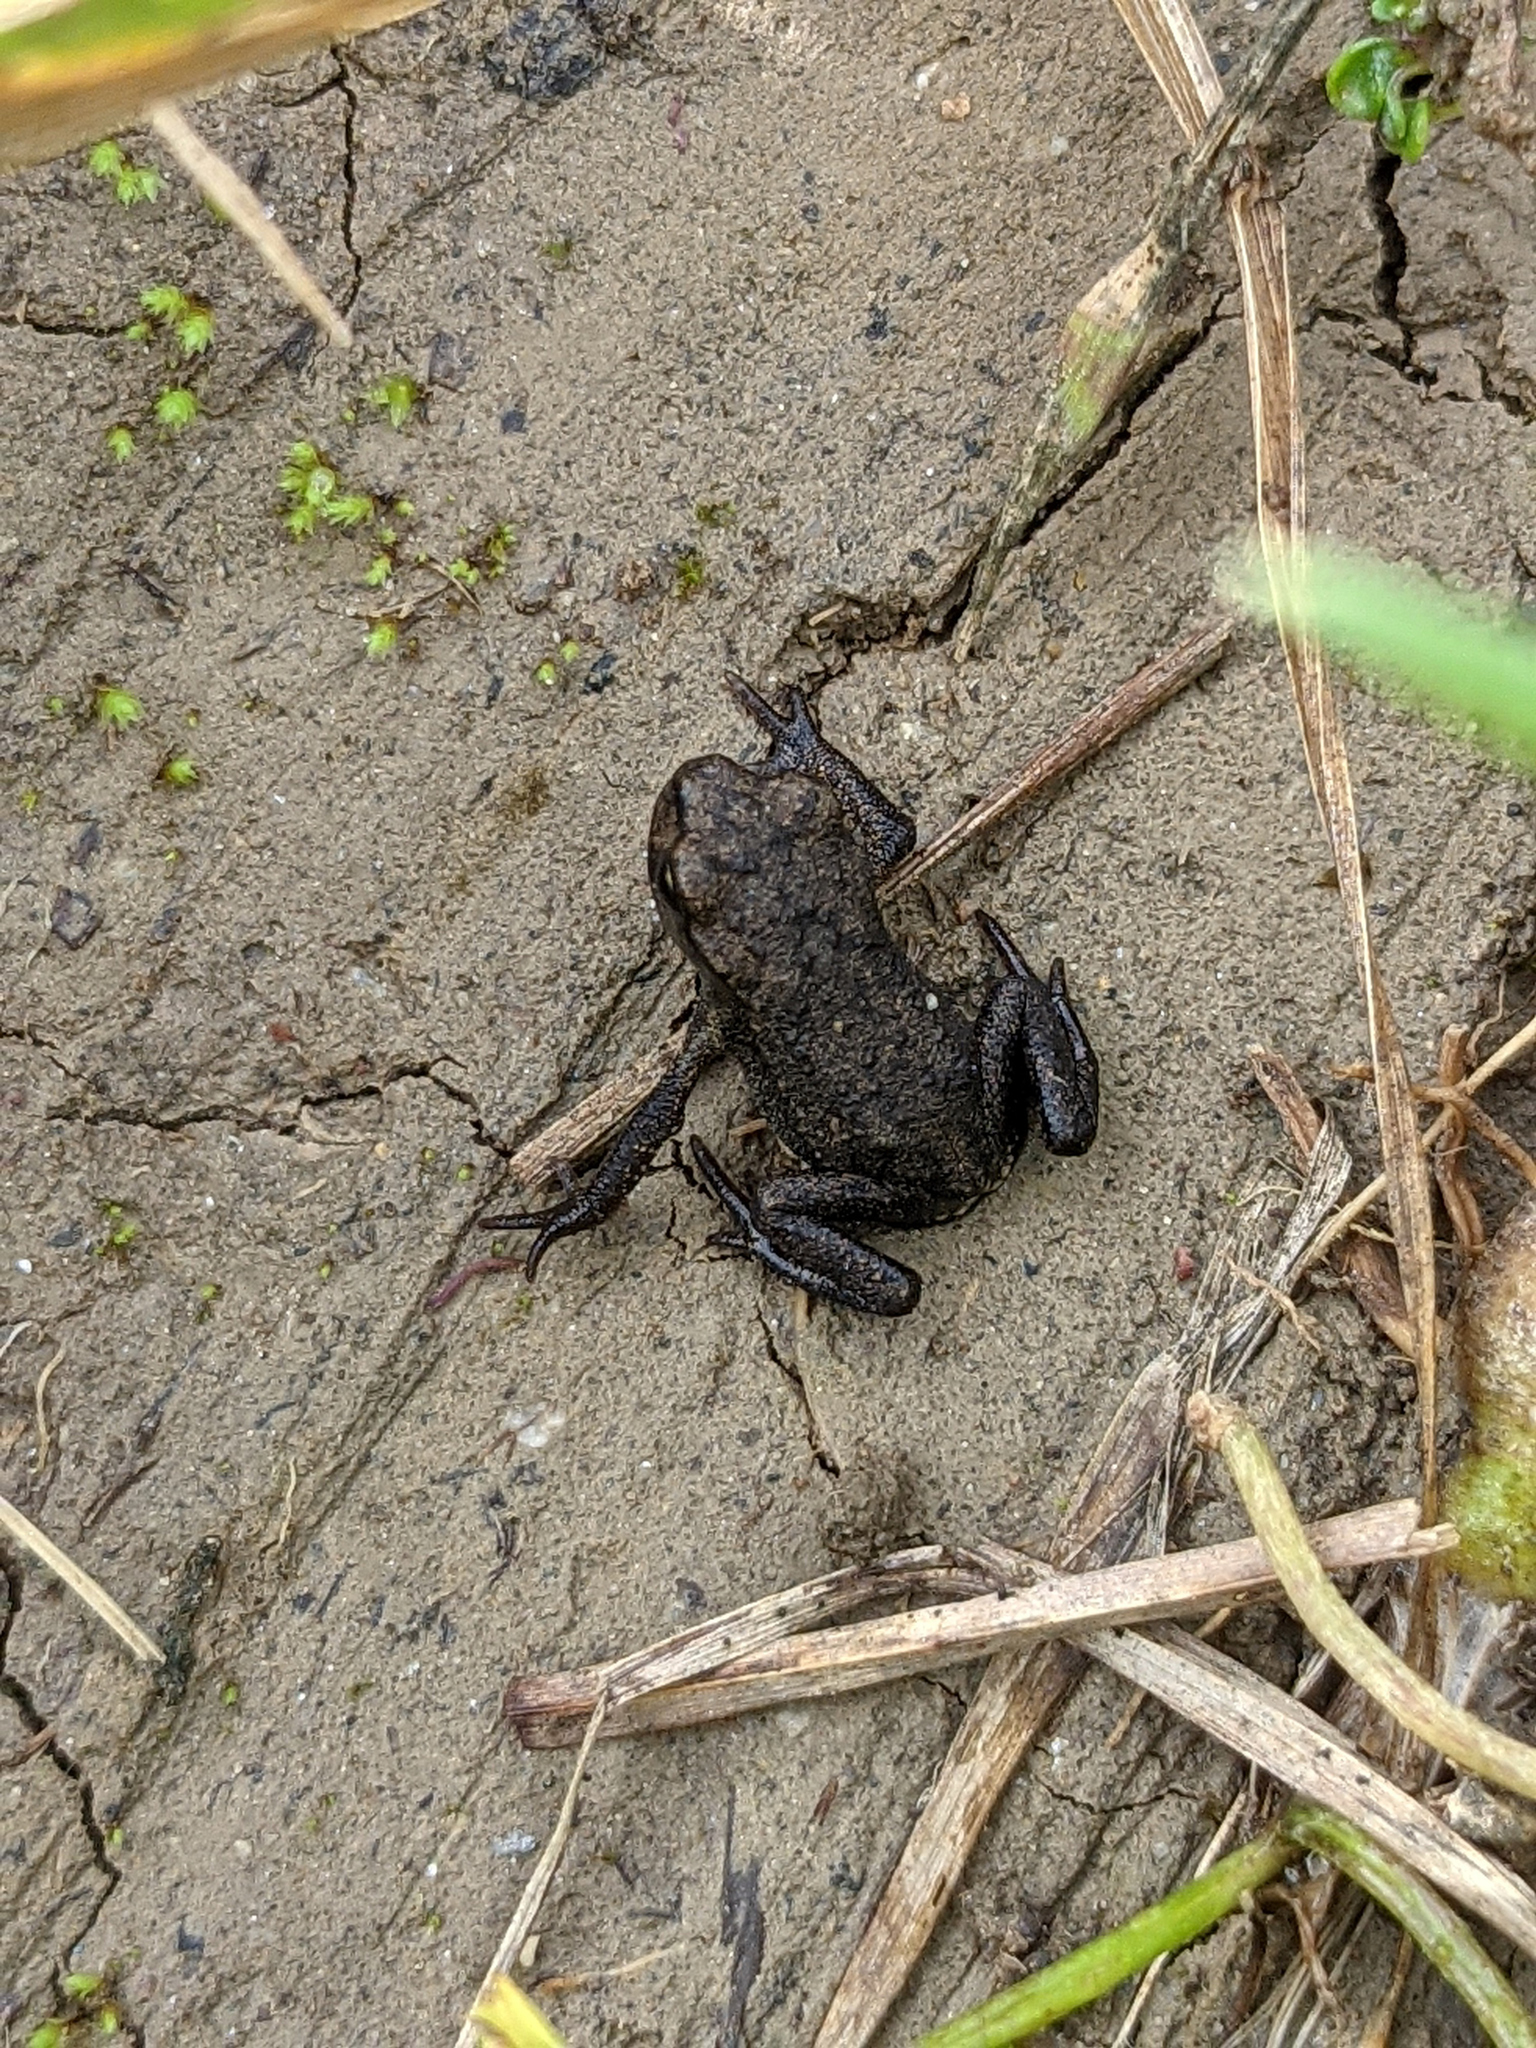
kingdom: Animalia
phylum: Chordata
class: Amphibia
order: Anura
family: Bufonidae
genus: Bufo
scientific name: Bufo bufo
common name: Common toad
